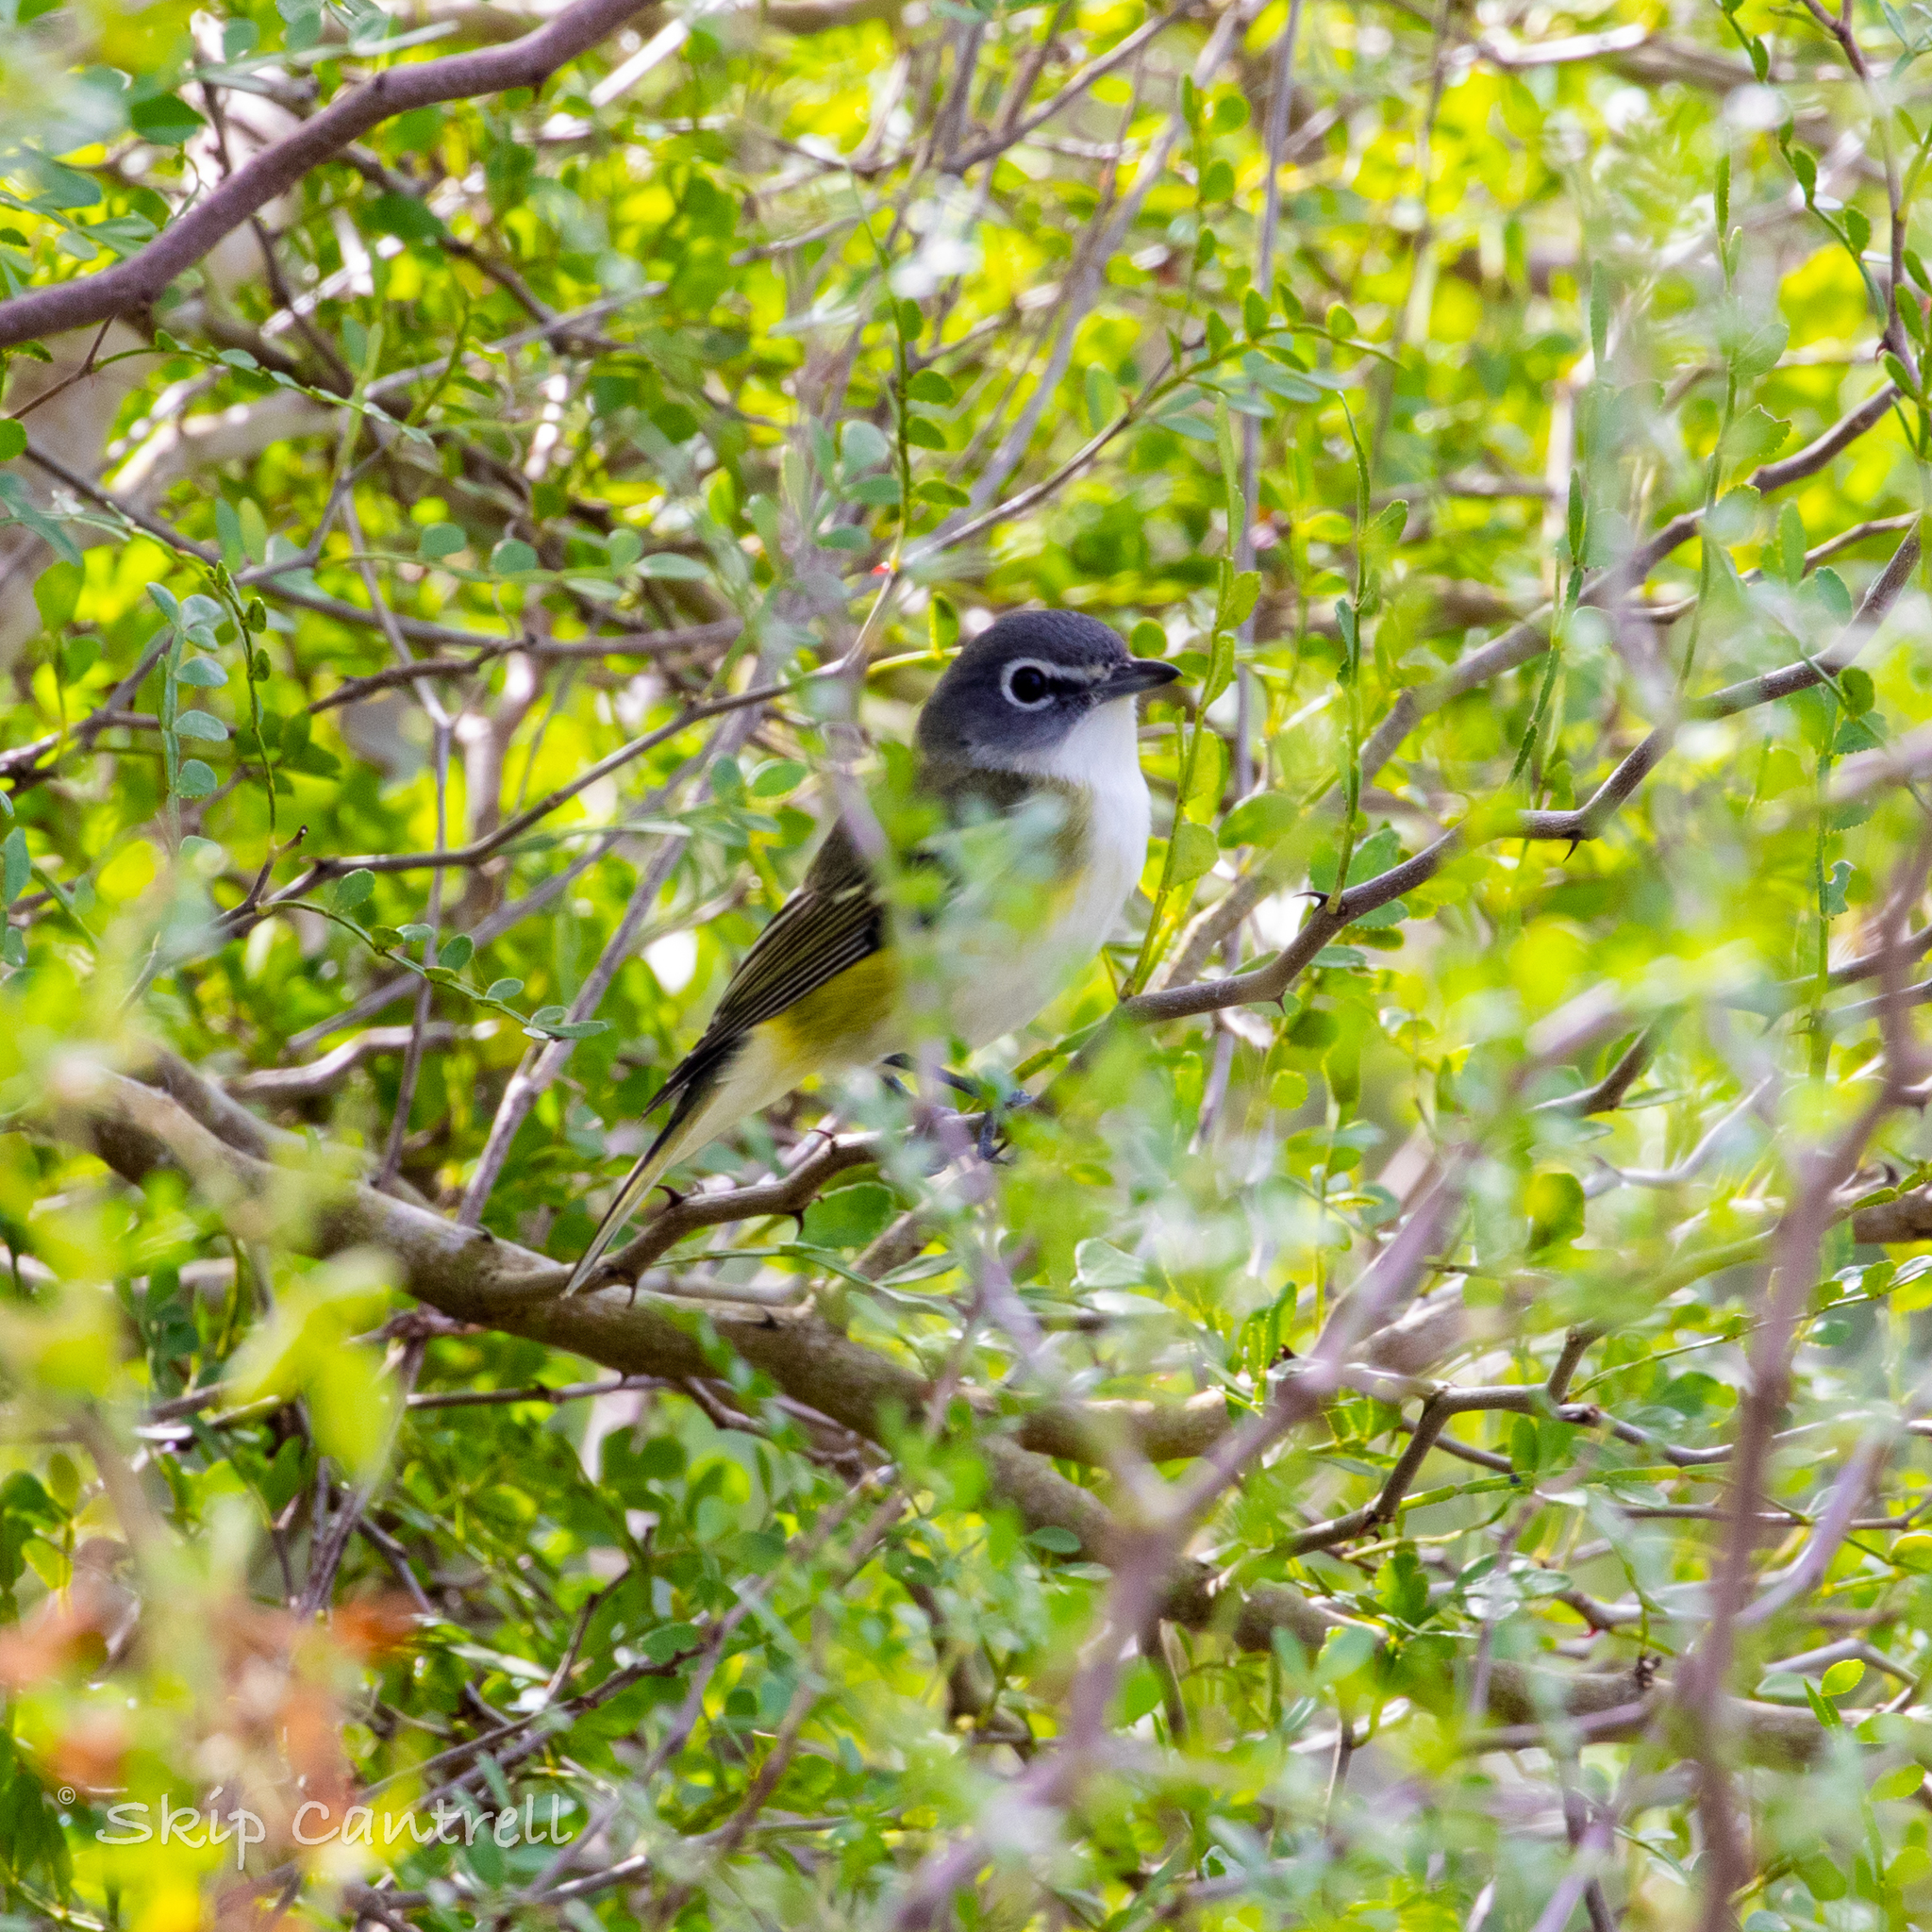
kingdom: Animalia
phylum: Chordata
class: Aves
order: Passeriformes
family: Vireonidae
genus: Vireo
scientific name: Vireo solitarius
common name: Blue-headed vireo
